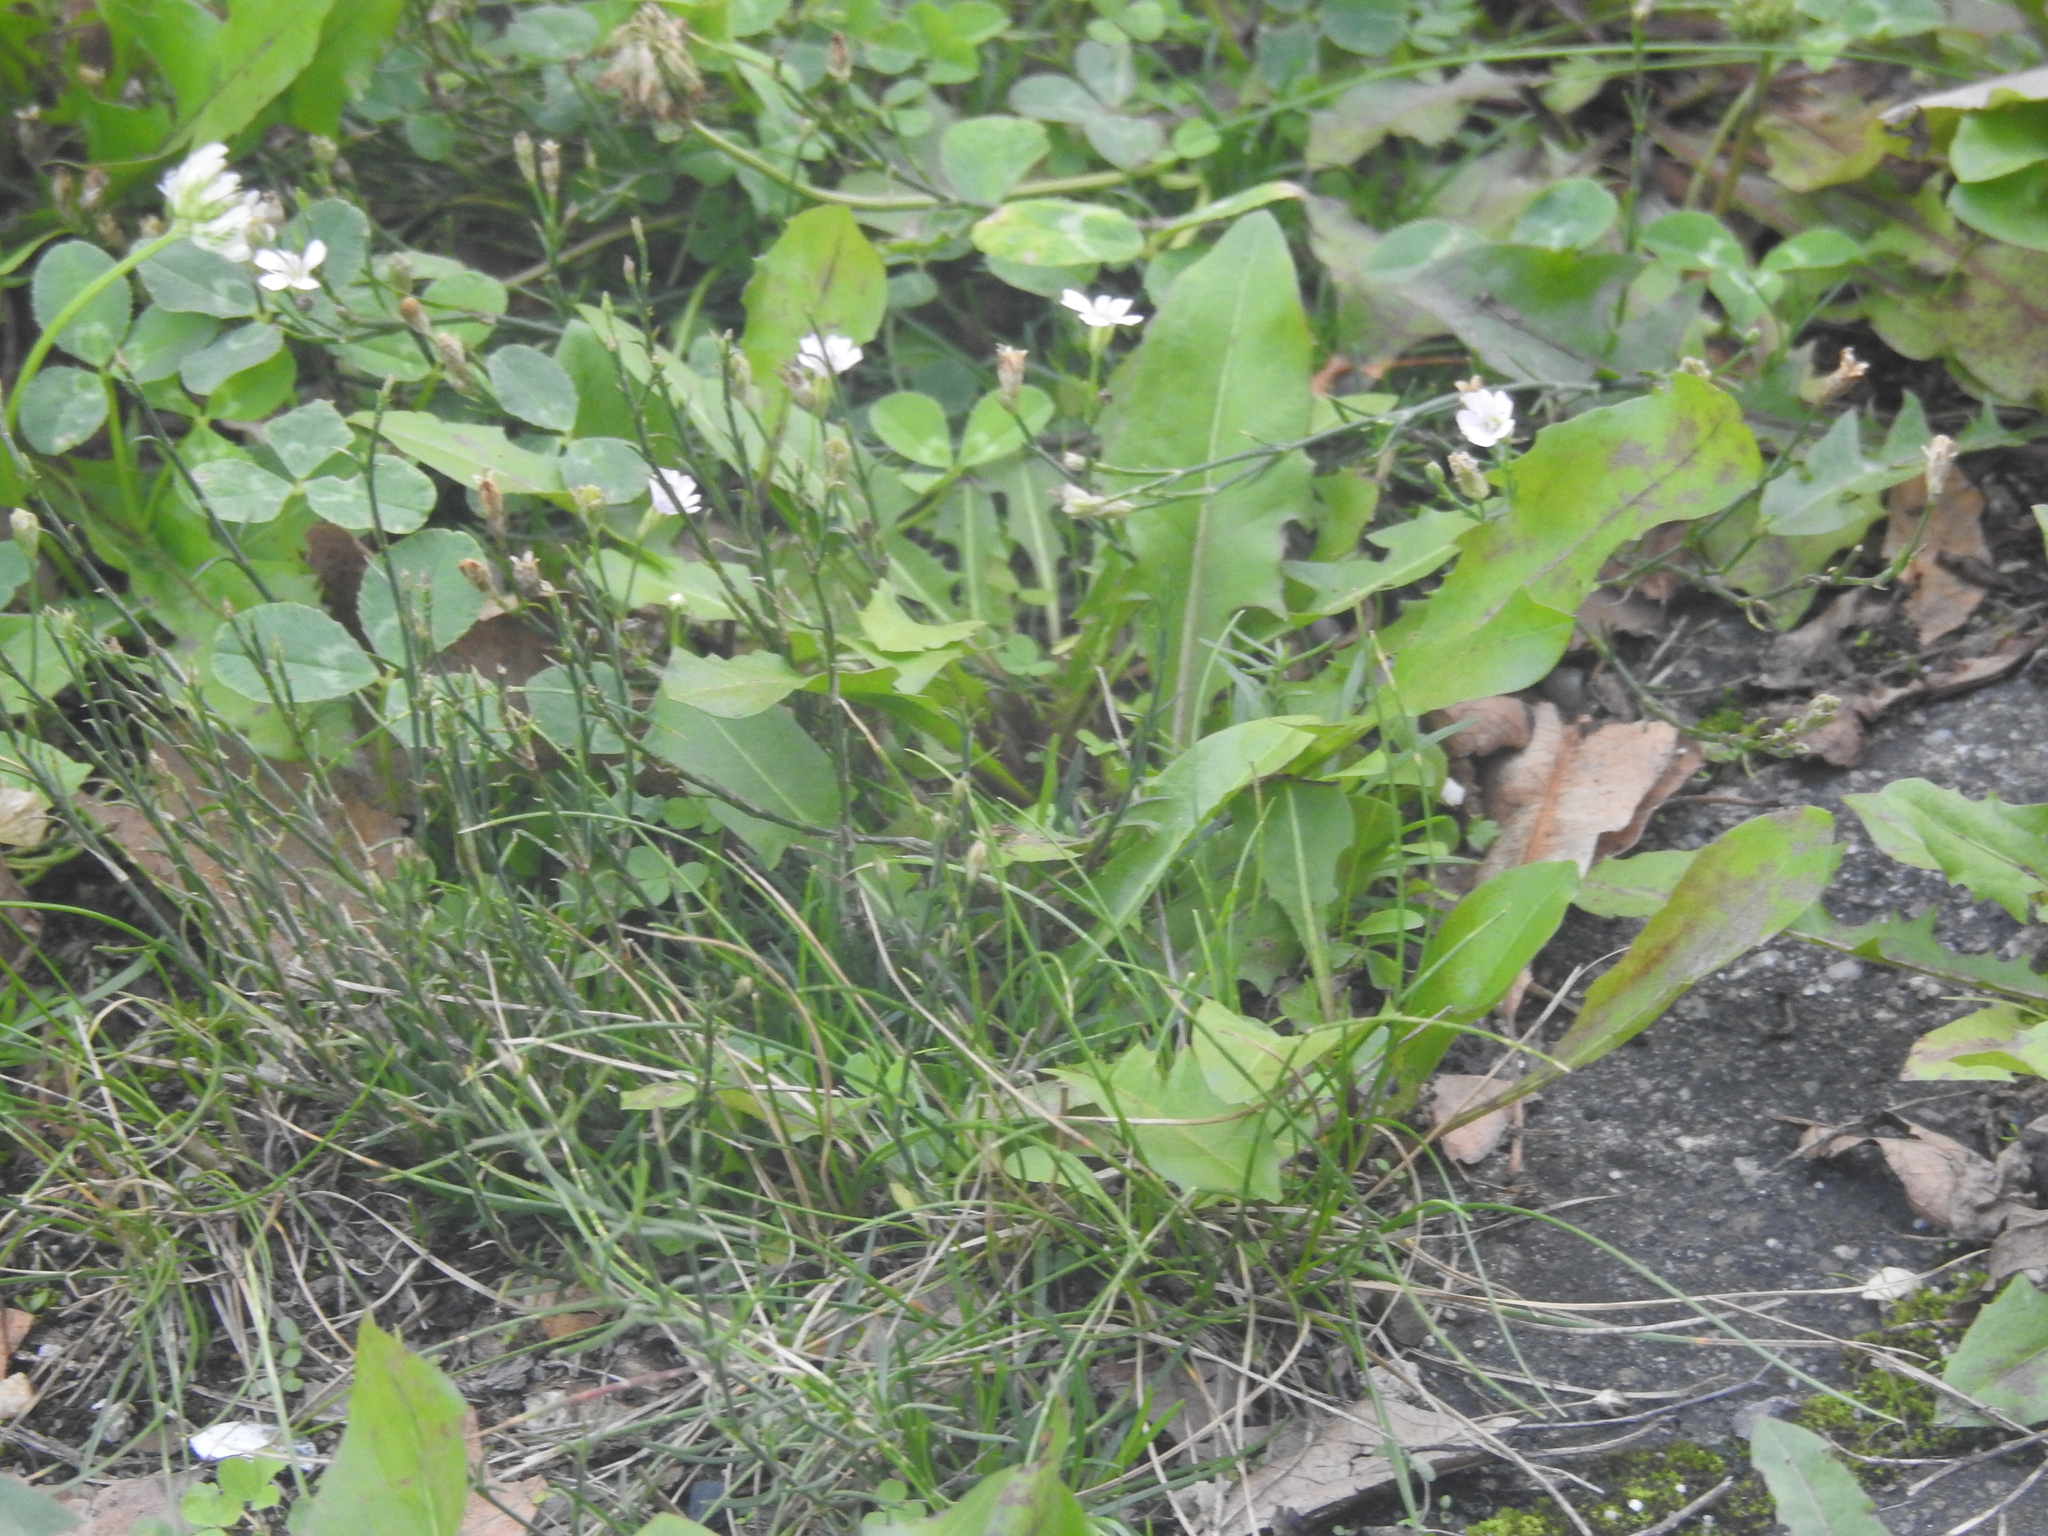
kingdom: Plantae
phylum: Tracheophyta
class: Magnoliopsida
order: Caryophyllales
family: Caryophyllaceae
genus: Petrorhagia
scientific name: Petrorhagia saxifraga
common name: Tunicflower
